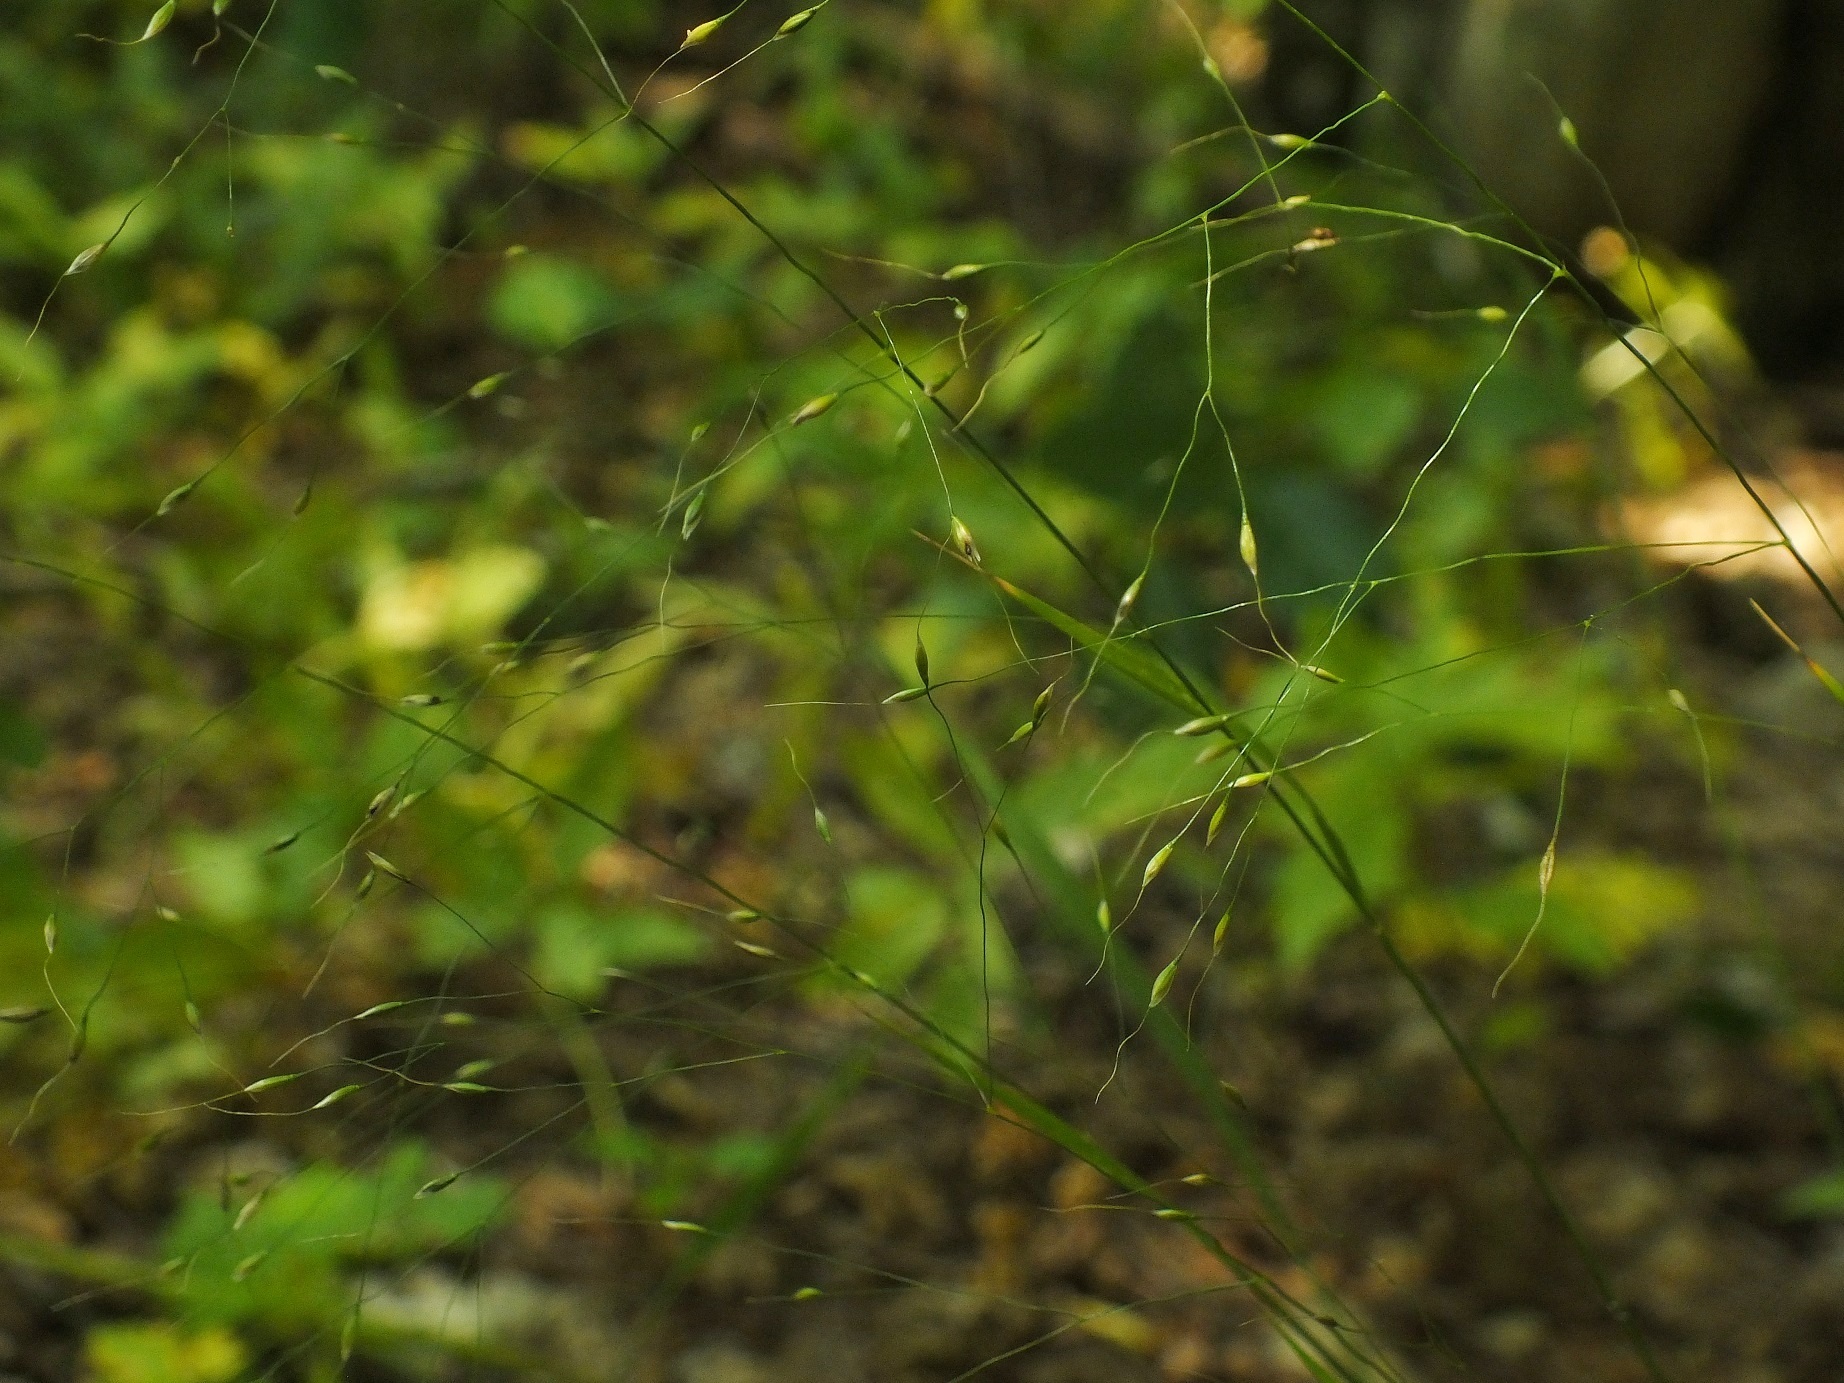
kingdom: Plantae
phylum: Tracheophyta
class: Liliopsida
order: Poales
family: Poaceae
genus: Achnatherum
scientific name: Achnatherum virescens
